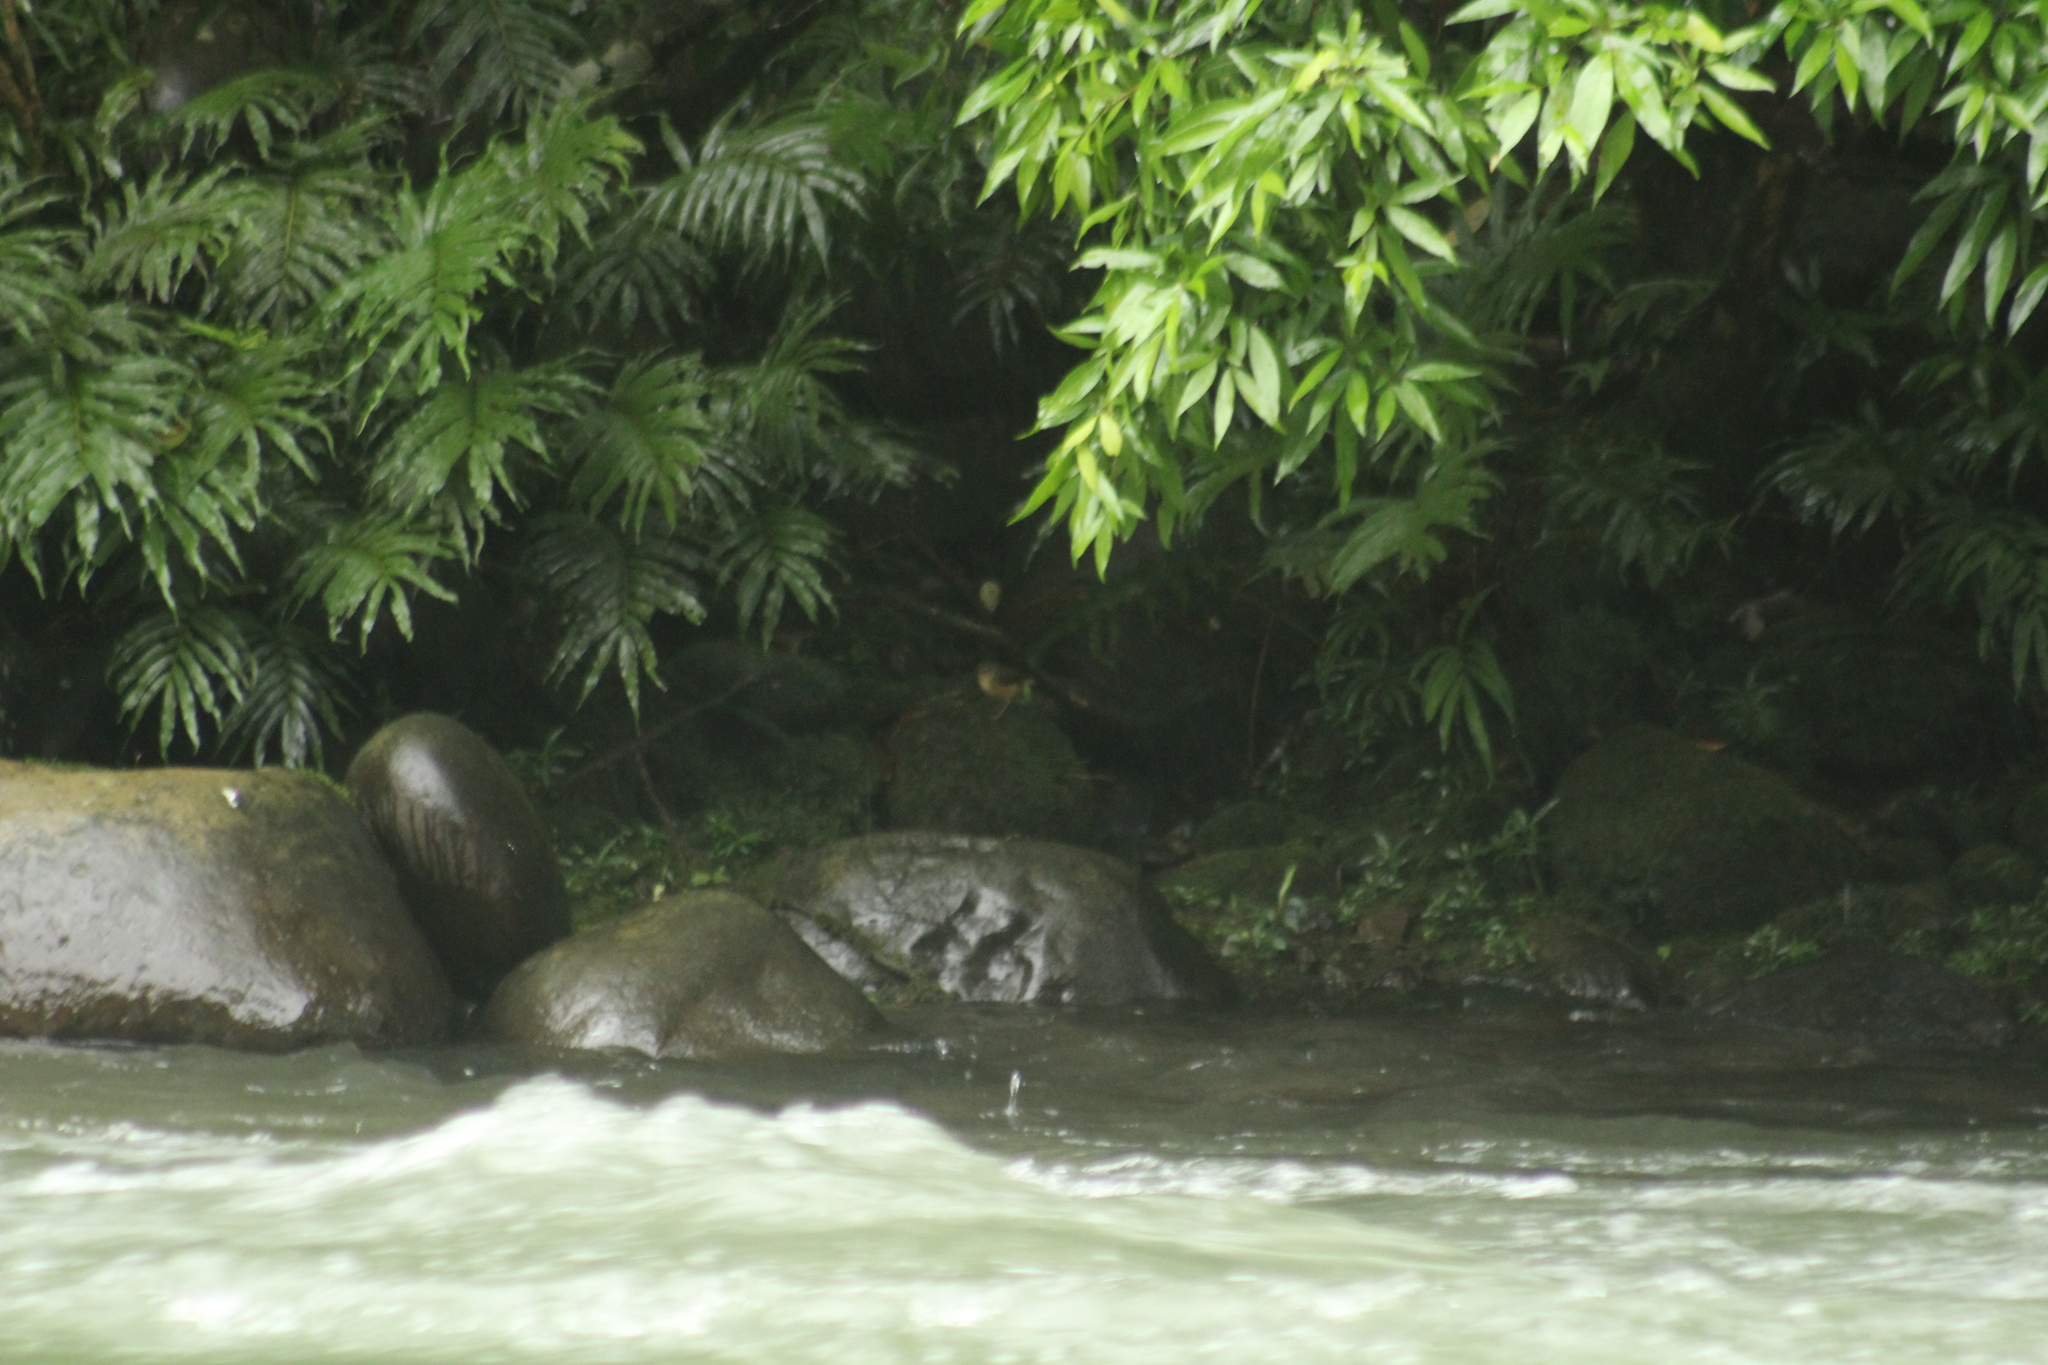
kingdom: Animalia
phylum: Chordata
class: Aves
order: Passeriformes
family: Parulidae
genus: Myiothlypis
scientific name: Myiothlypis fulvicauda
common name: Buff-rumped warbler
